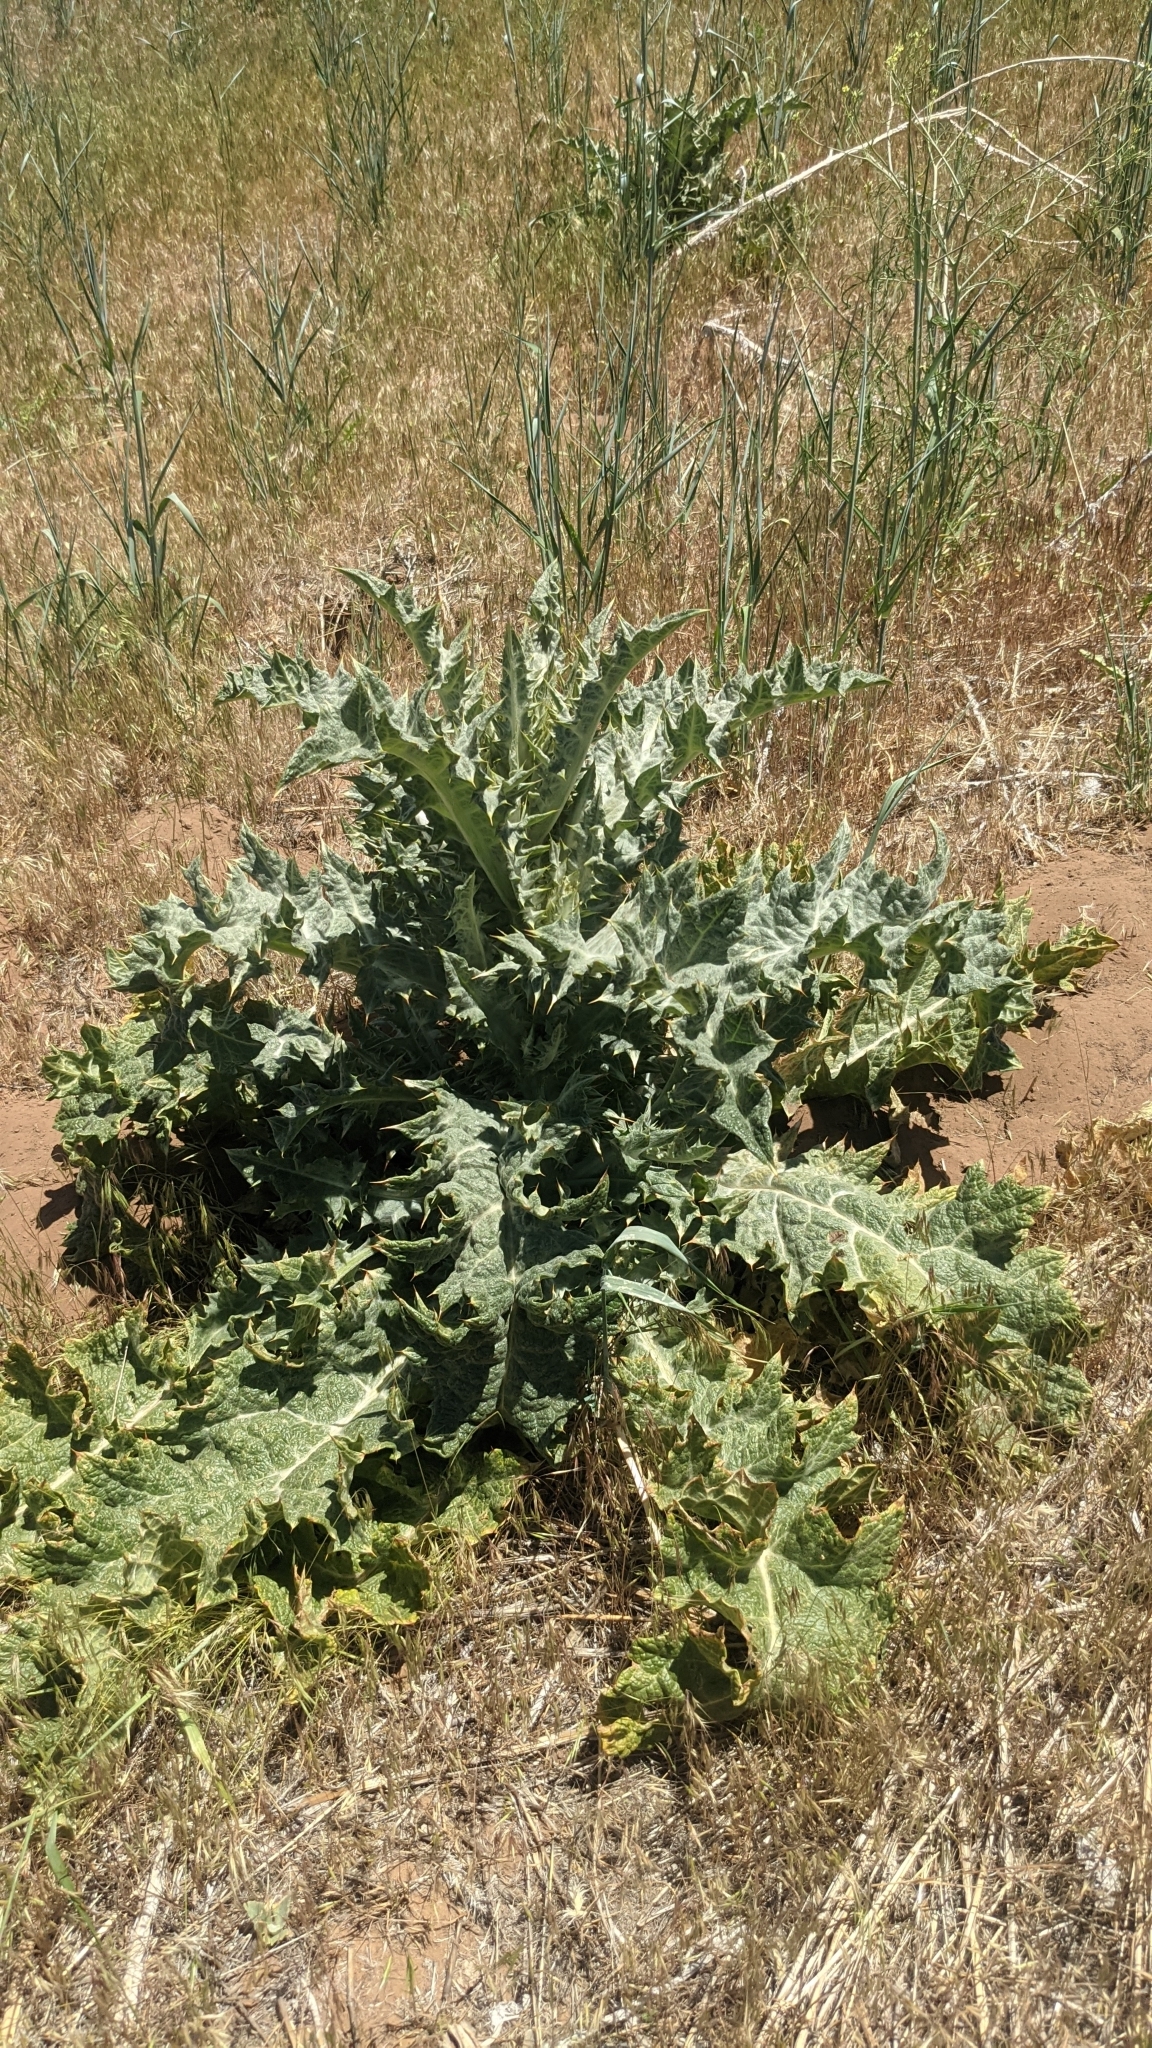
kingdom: Plantae
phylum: Tracheophyta
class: Magnoliopsida
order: Asterales
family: Asteraceae
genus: Onopordum
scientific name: Onopordum acanthium
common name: Scotch thistle
